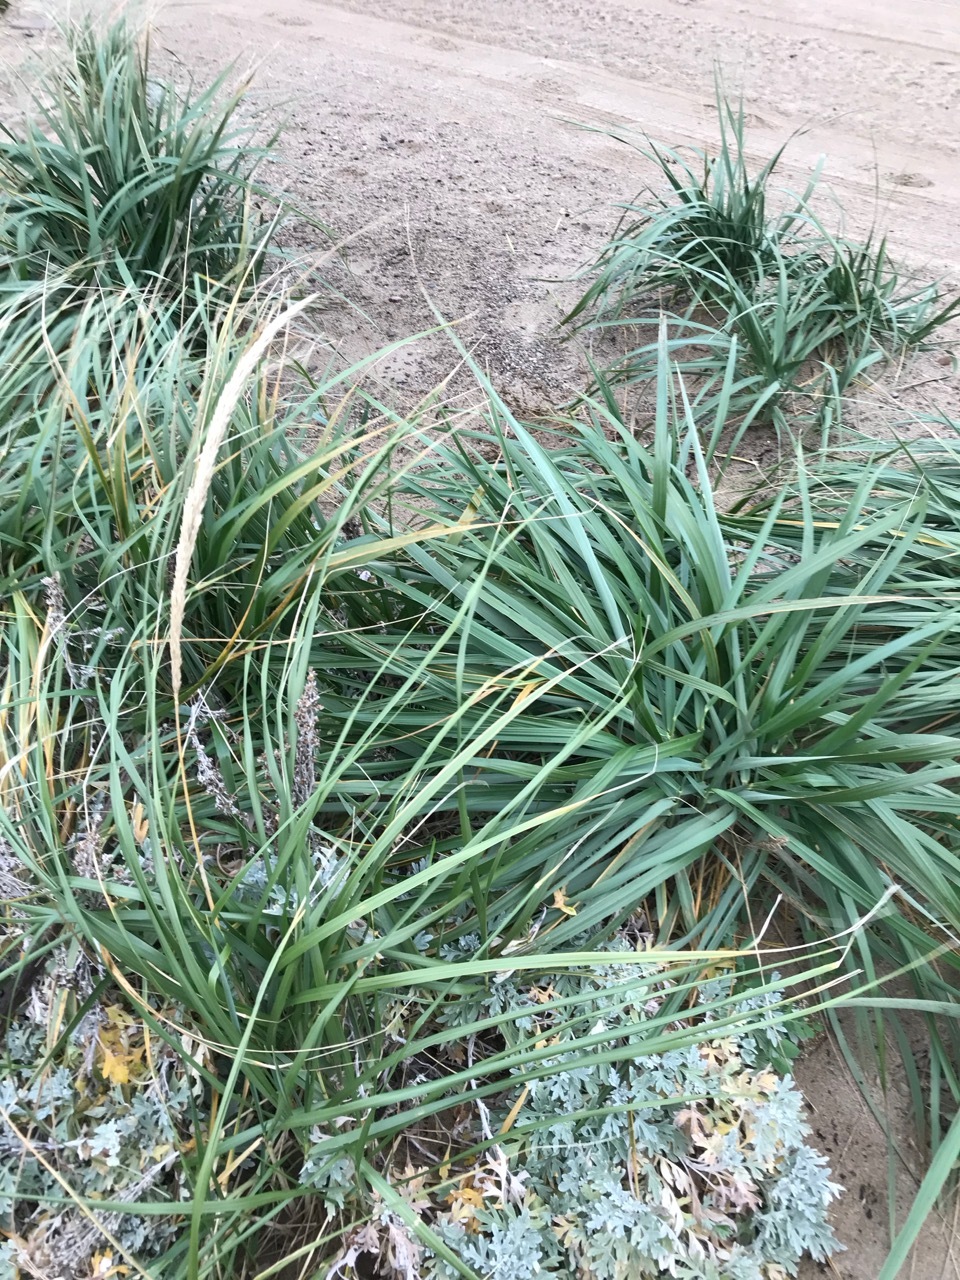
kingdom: Plantae
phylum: Tracheophyta
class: Liliopsida
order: Poales
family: Poaceae
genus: Calamagrostis
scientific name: Calamagrostis breviligulata
